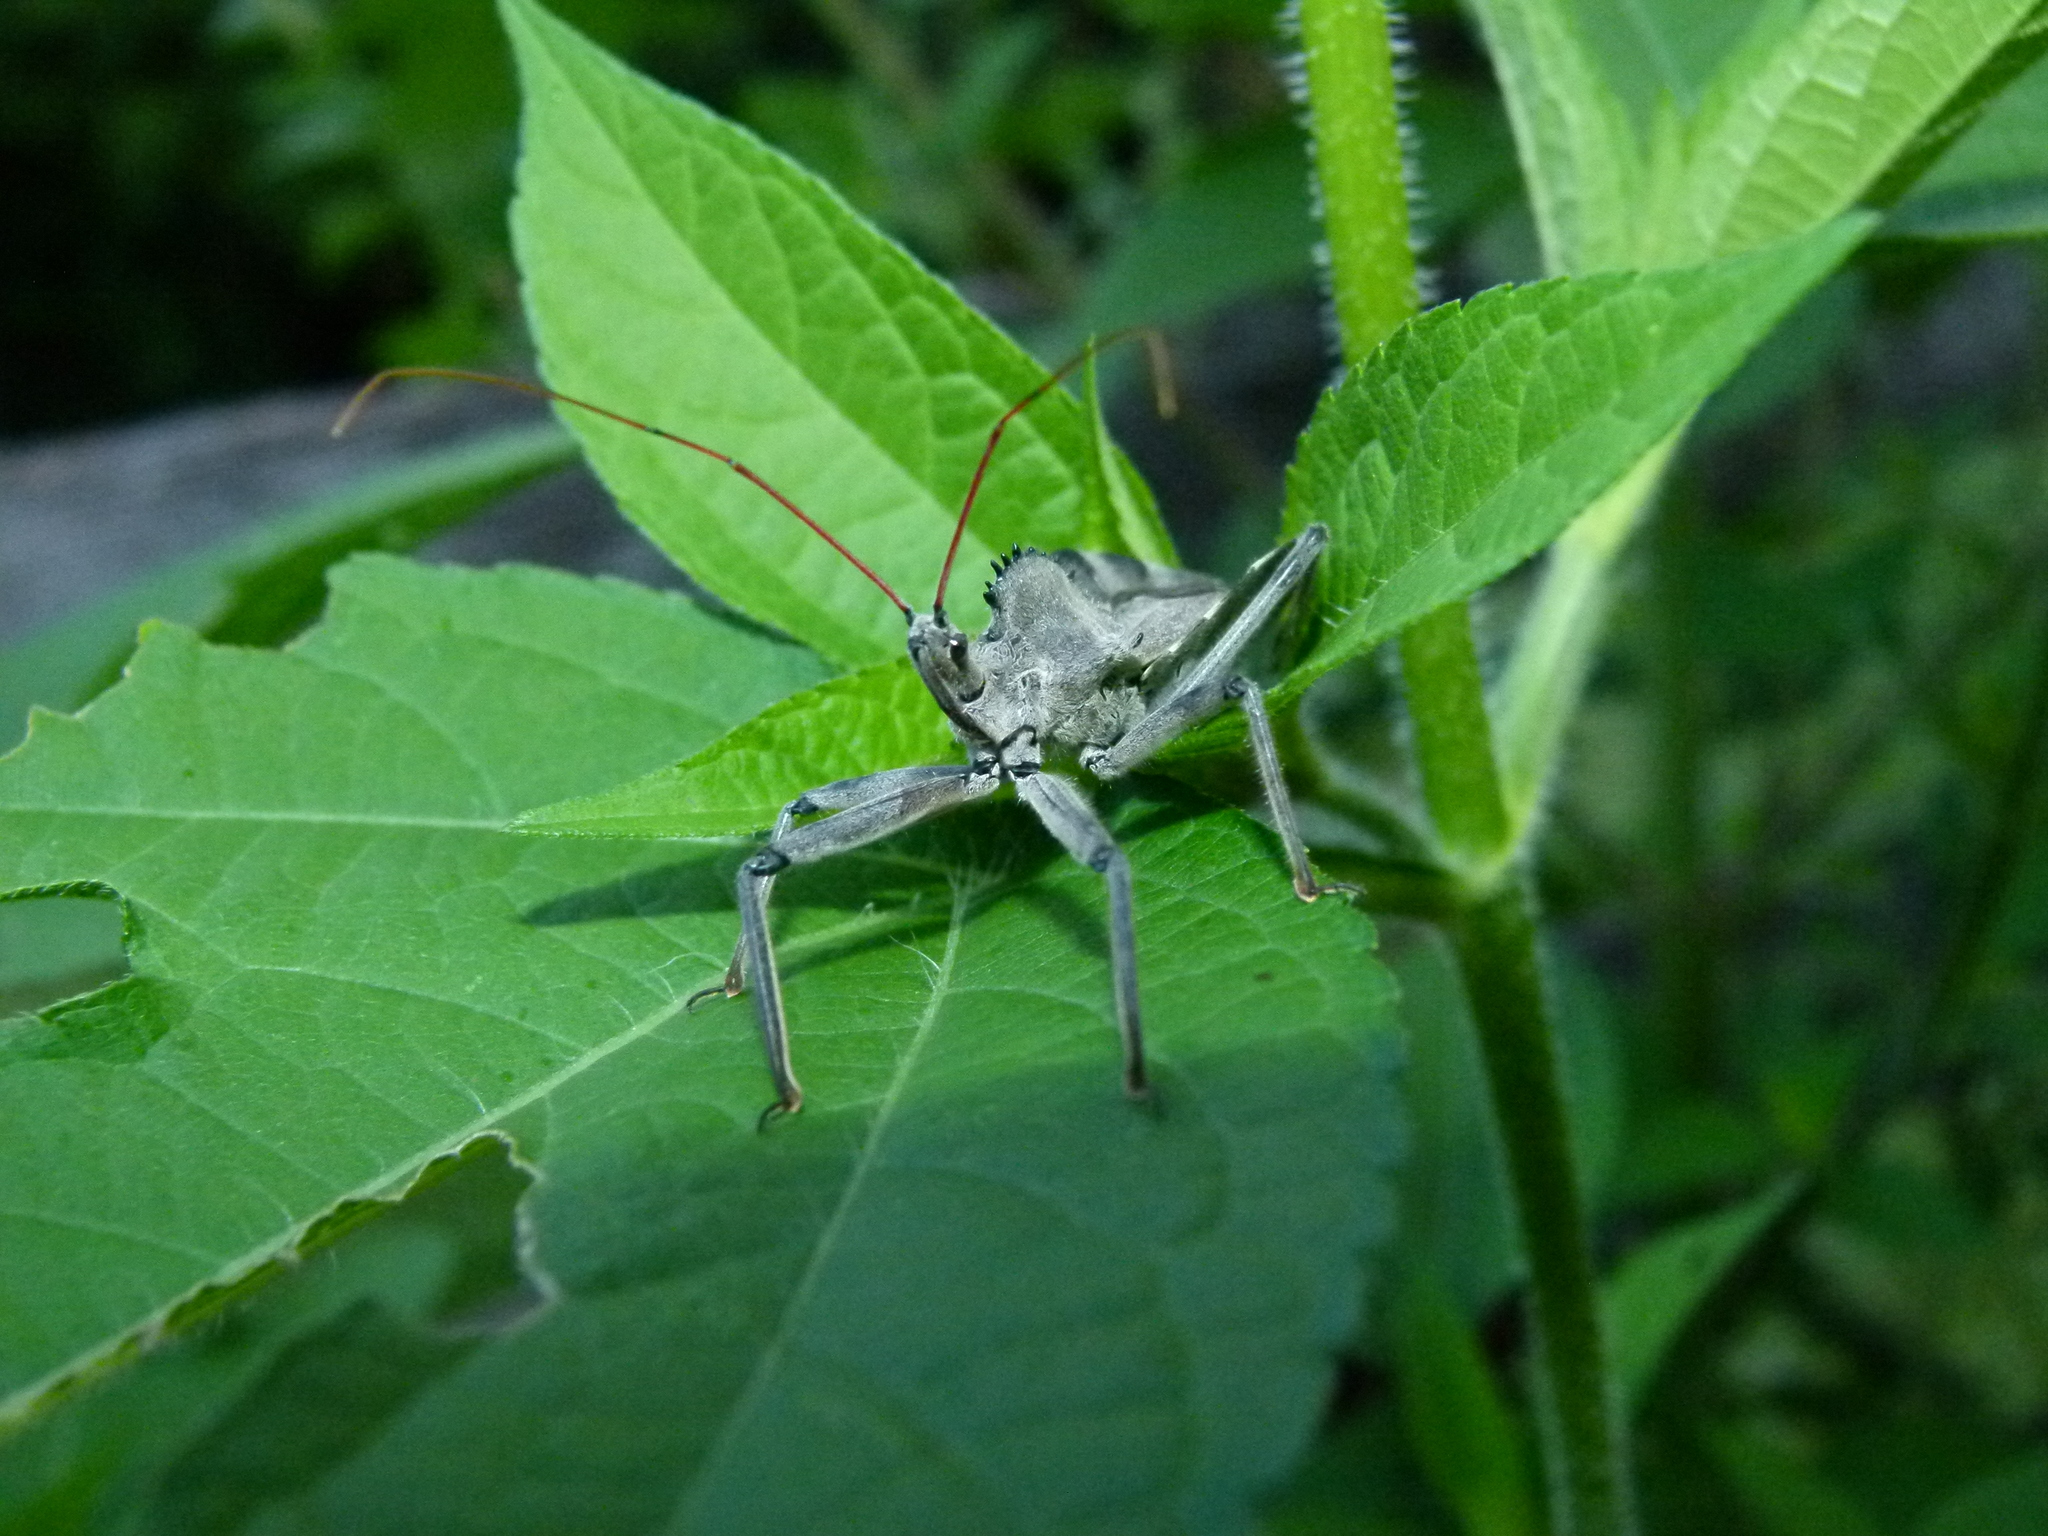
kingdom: Animalia
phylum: Arthropoda
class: Insecta
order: Hemiptera
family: Reduviidae
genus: Arilus
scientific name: Arilus cristatus
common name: North american wheel bug
